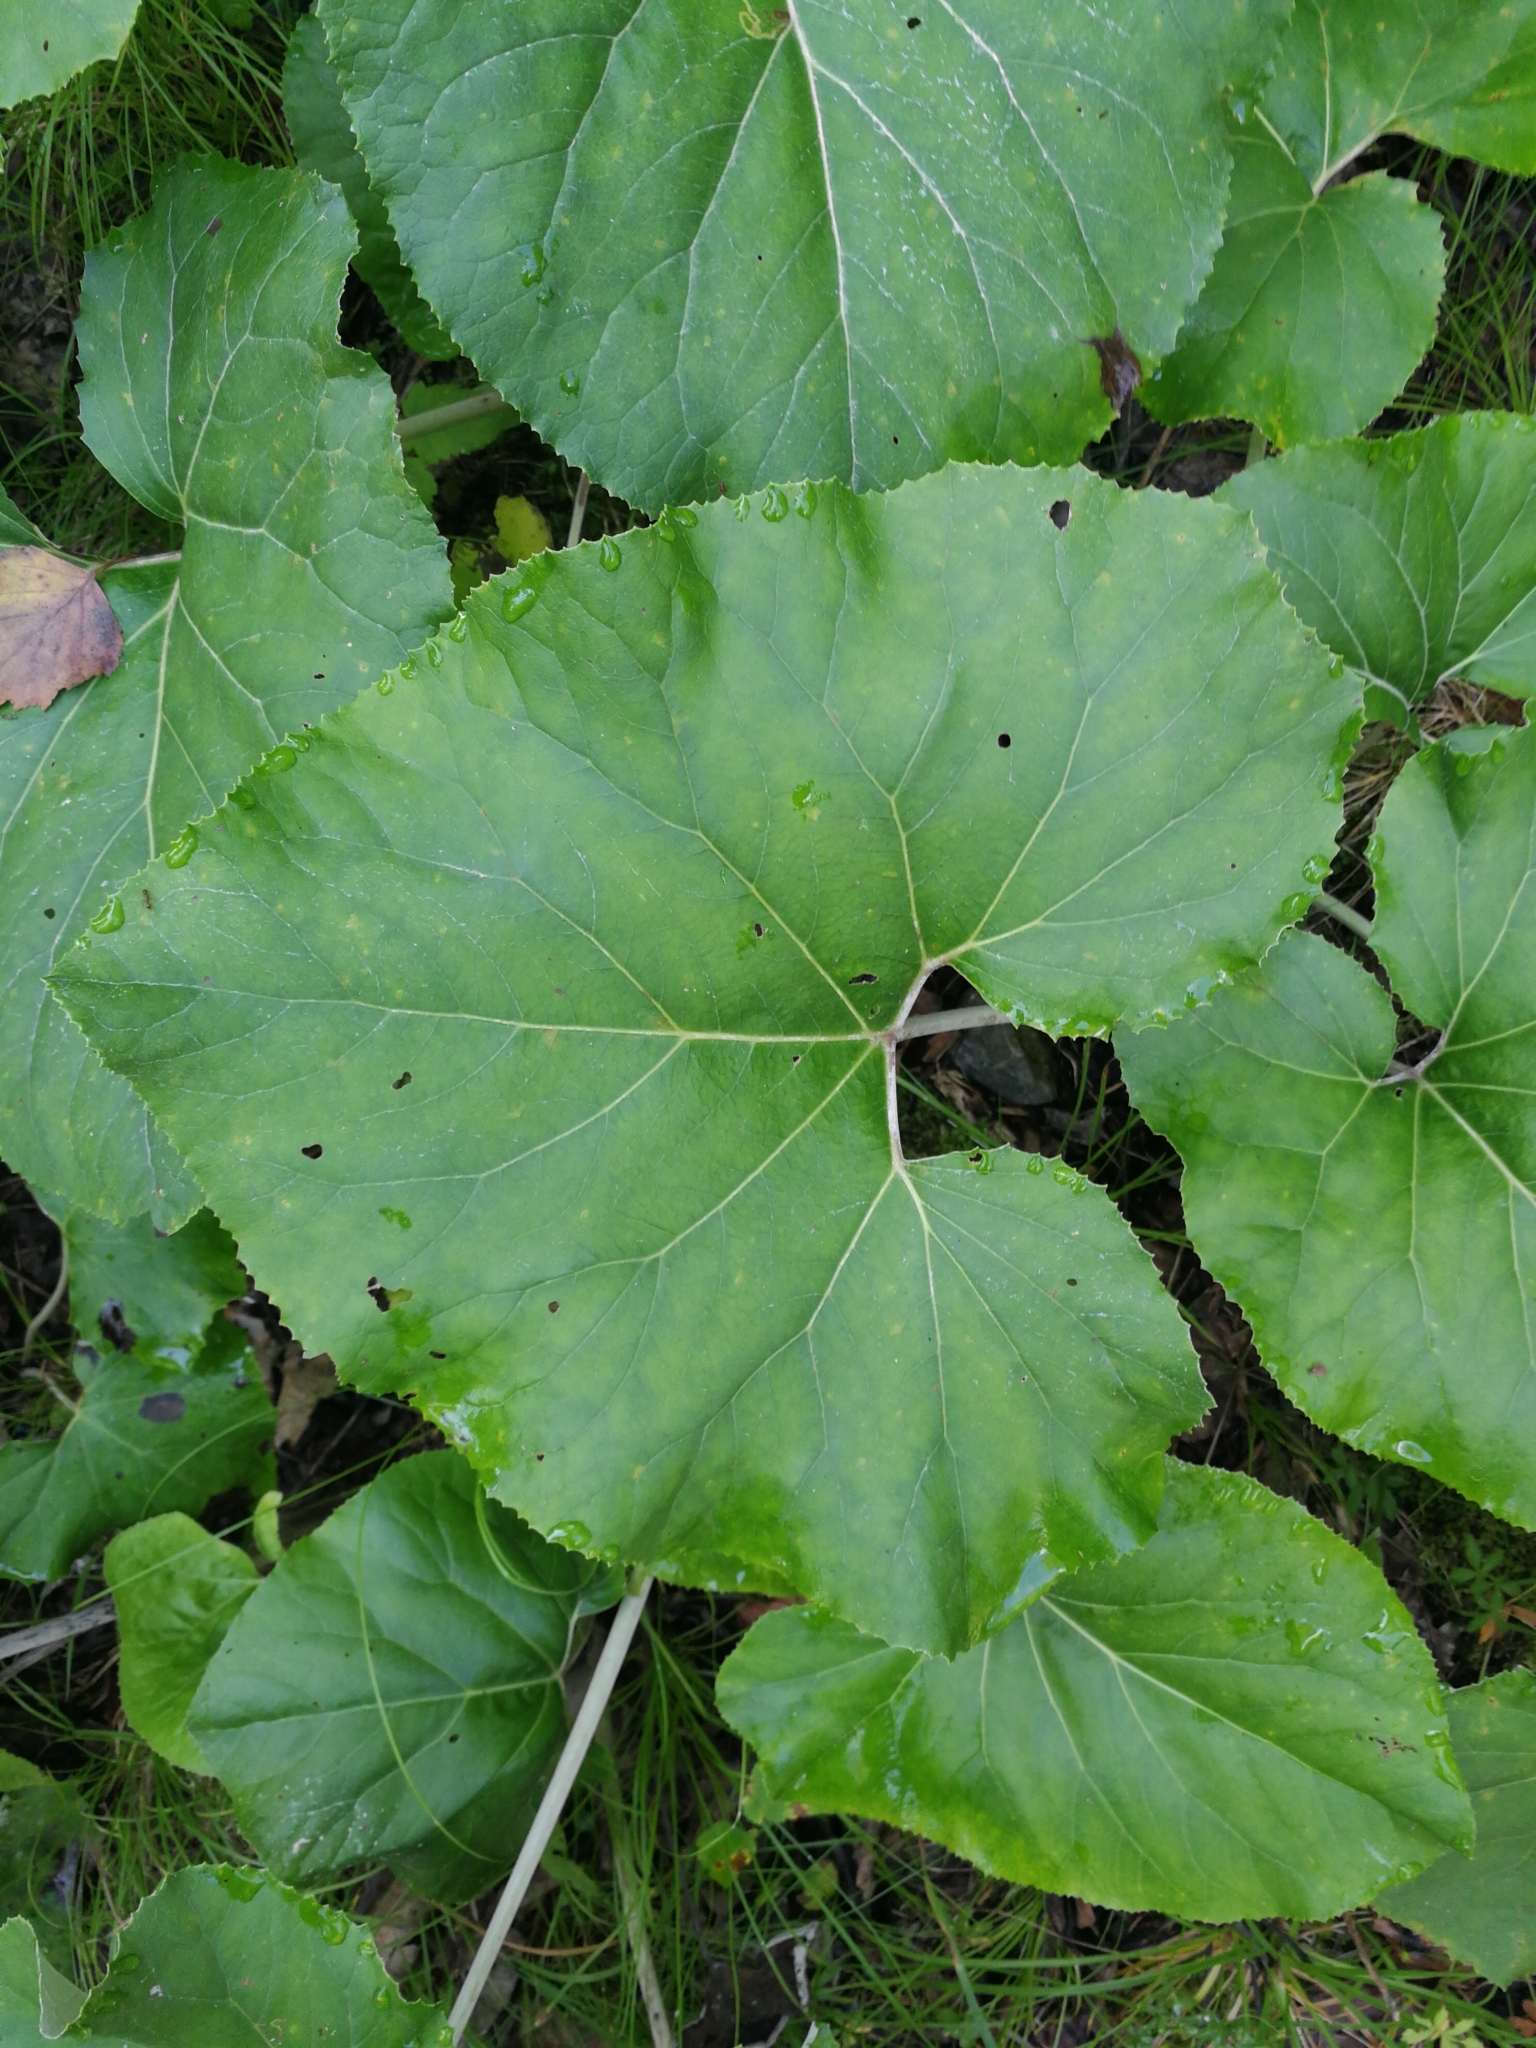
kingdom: Plantae
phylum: Tracheophyta
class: Magnoliopsida
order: Asterales
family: Asteraceae
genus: Petasites
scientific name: Petasites paradoxus
